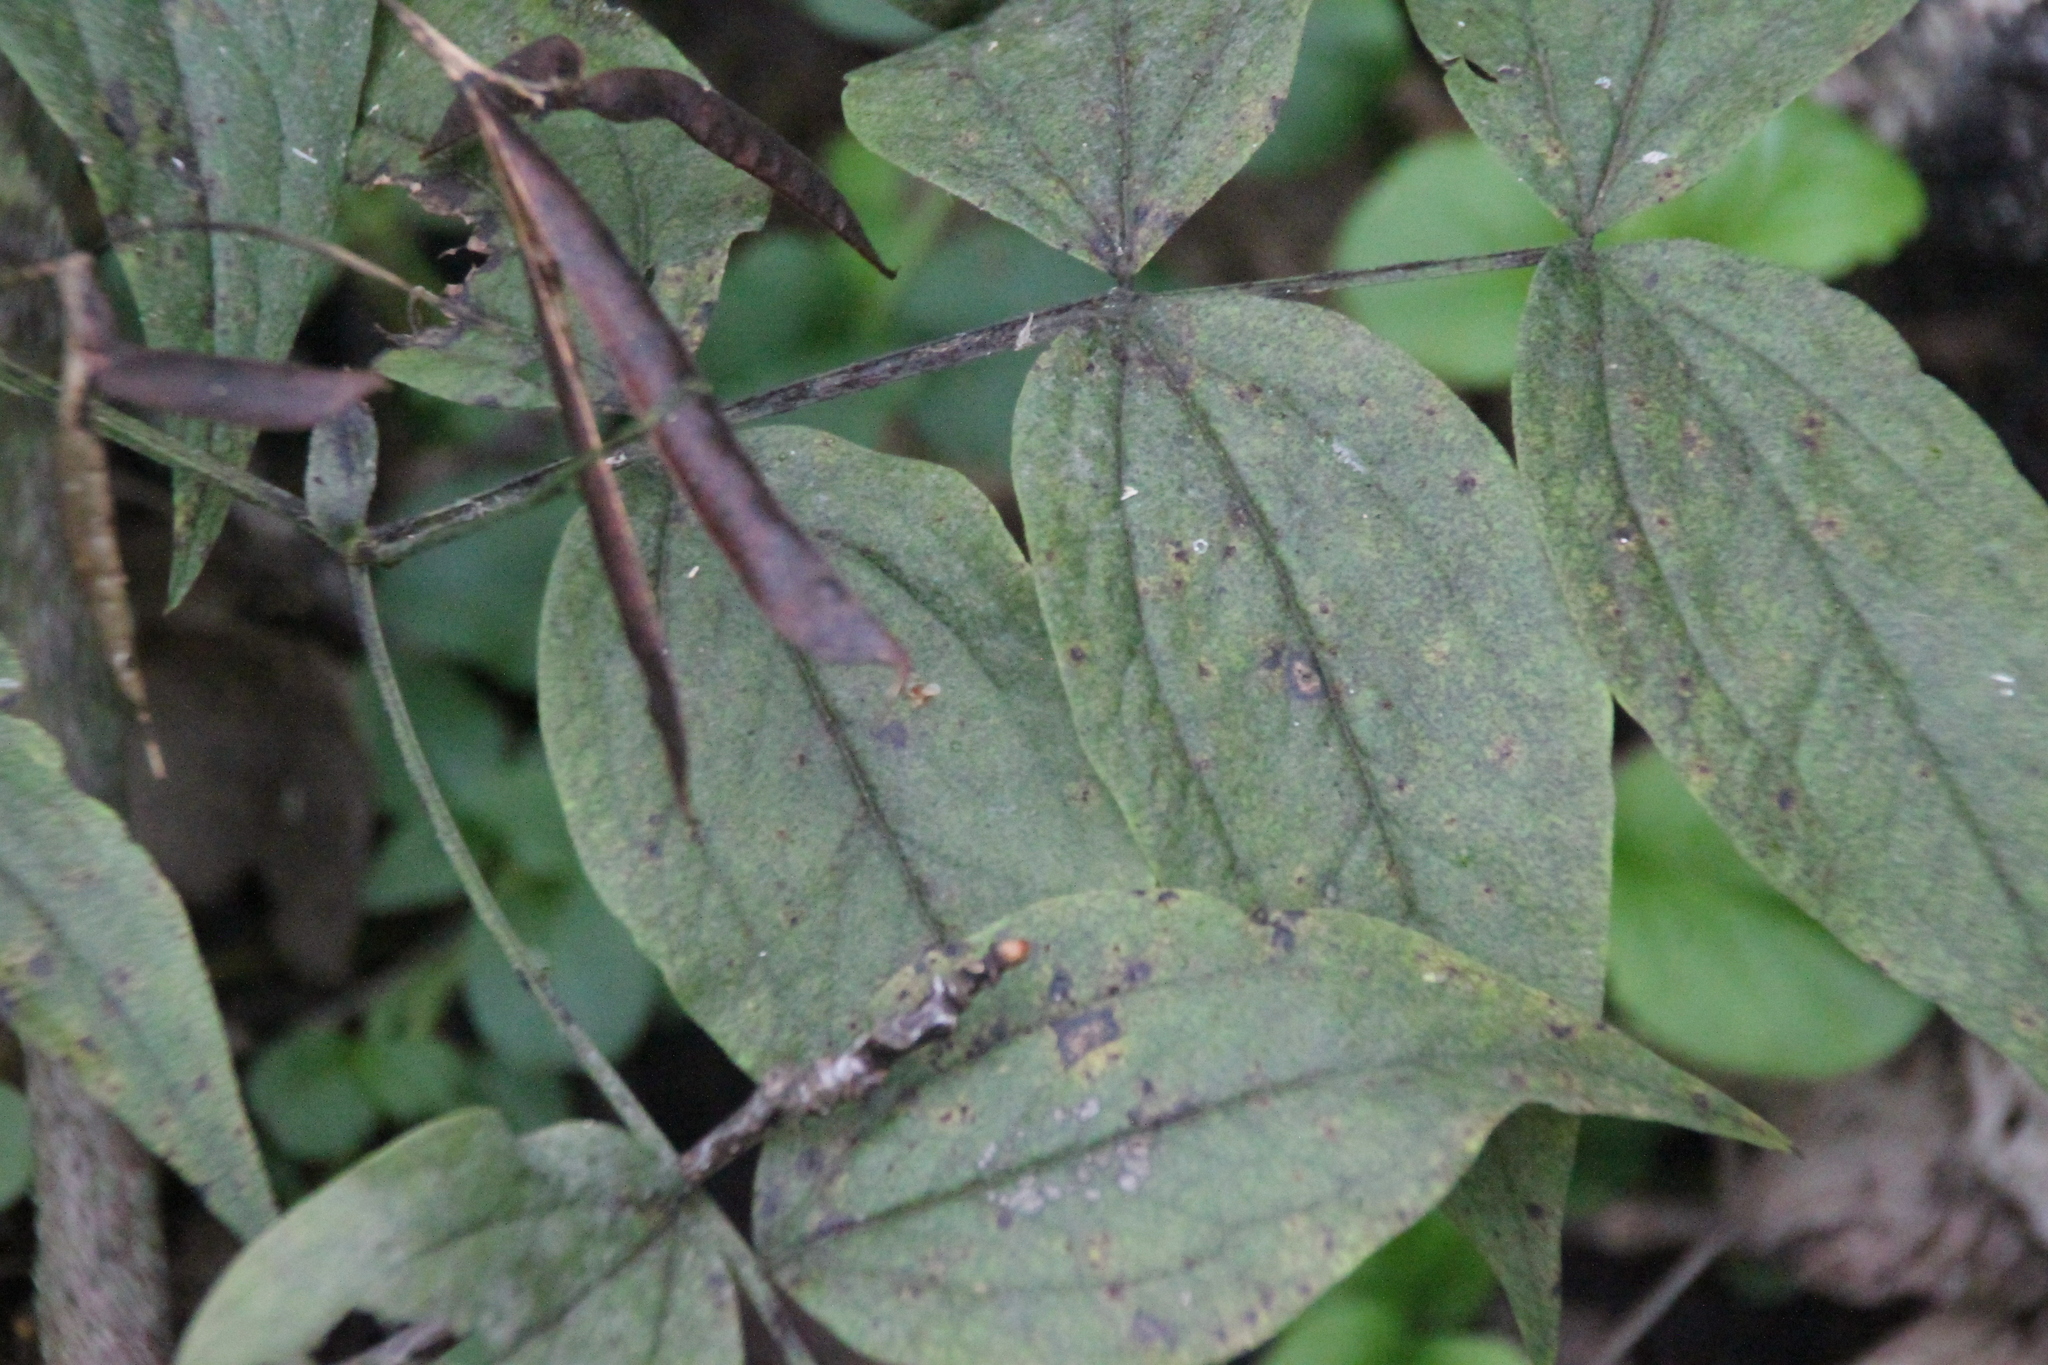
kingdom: Plantae
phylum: Tracheophyta
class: Magnoliopsida
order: Fabales
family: Fabaceae
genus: Lathyrus
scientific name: Lathyrus vernus
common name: Spring pea
